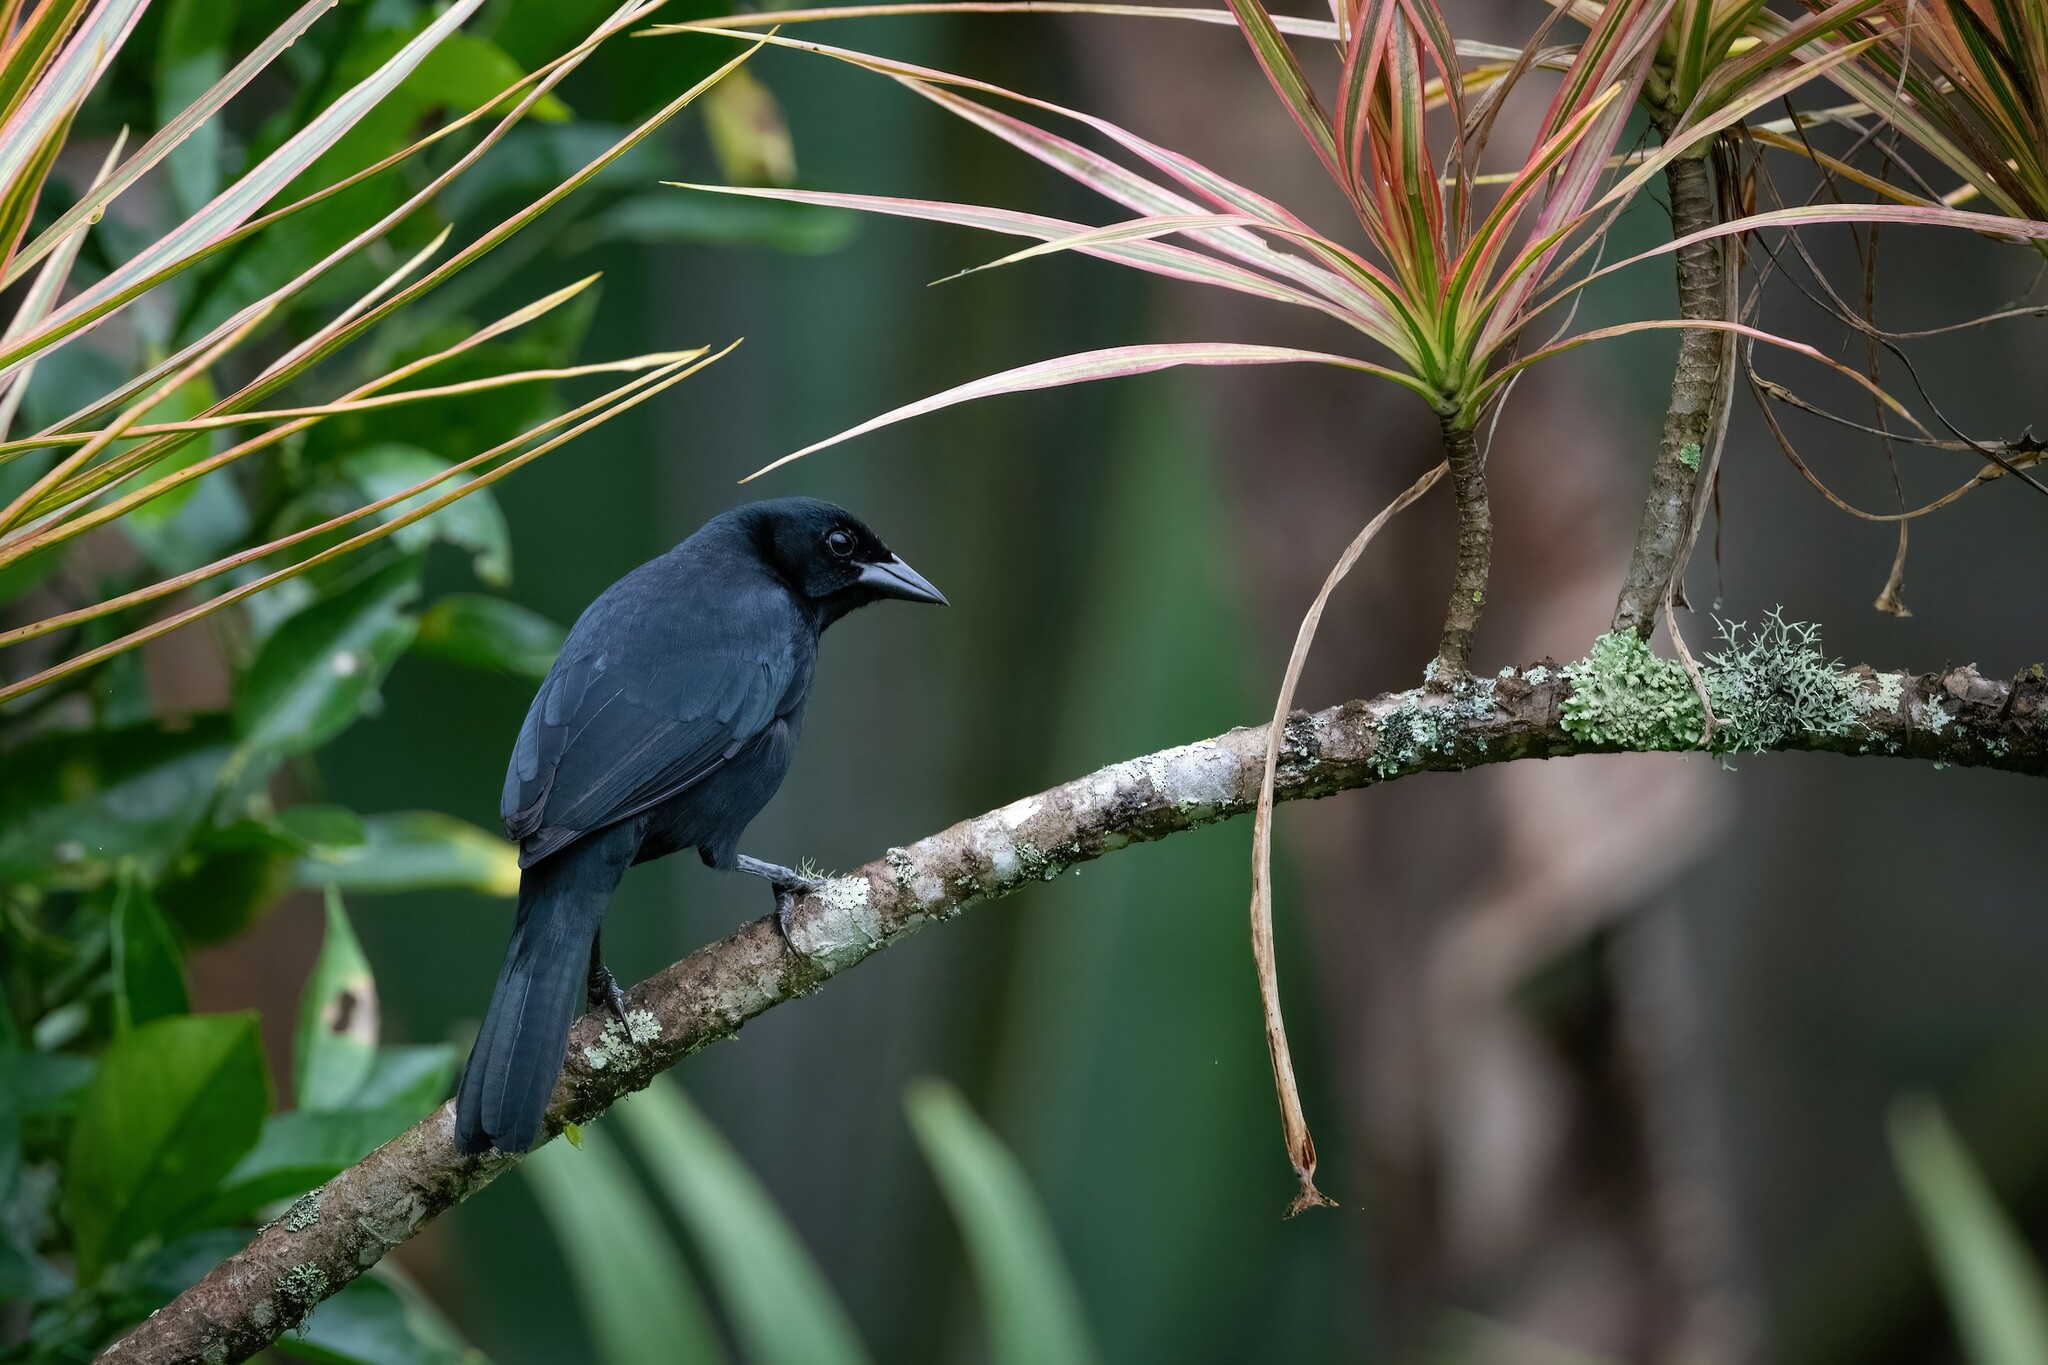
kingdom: Animalia
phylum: Chordata
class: Aves
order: Passeriformes
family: Icteridae
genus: Dives
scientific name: Dives warczewiczi
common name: Scrub blackbird
